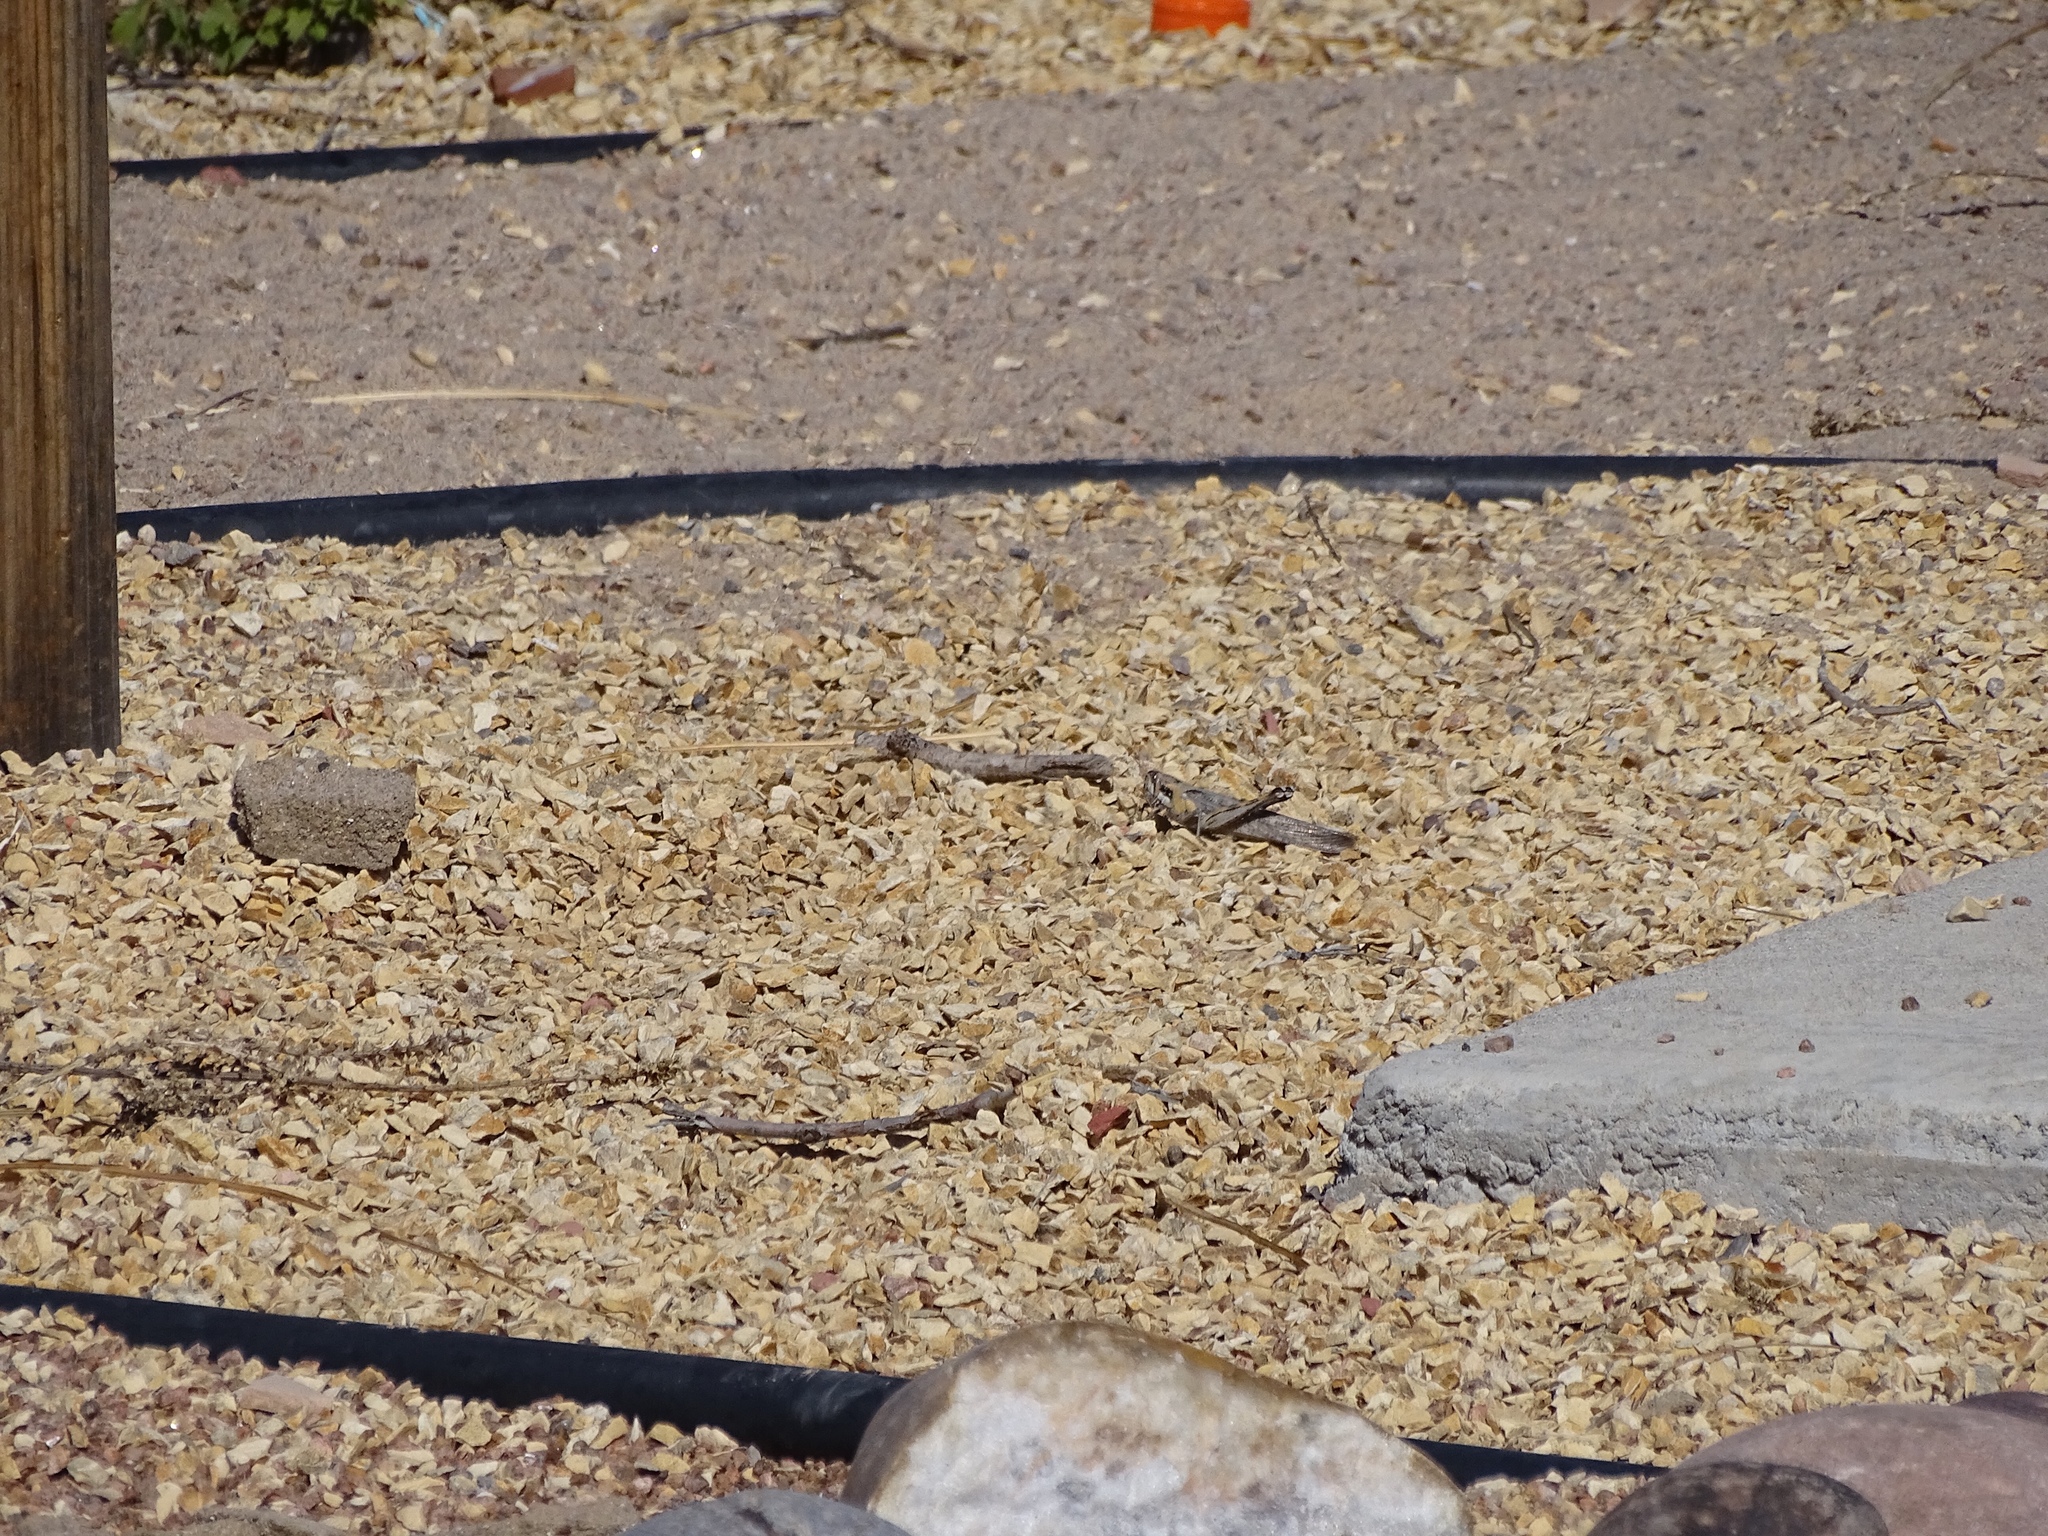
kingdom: Animalia
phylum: Arthropoda
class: Insecta
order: Orthoptera
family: Acrididae
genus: Schistocerca
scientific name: Schistocerca nitens
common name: Vagrant grasshopper
